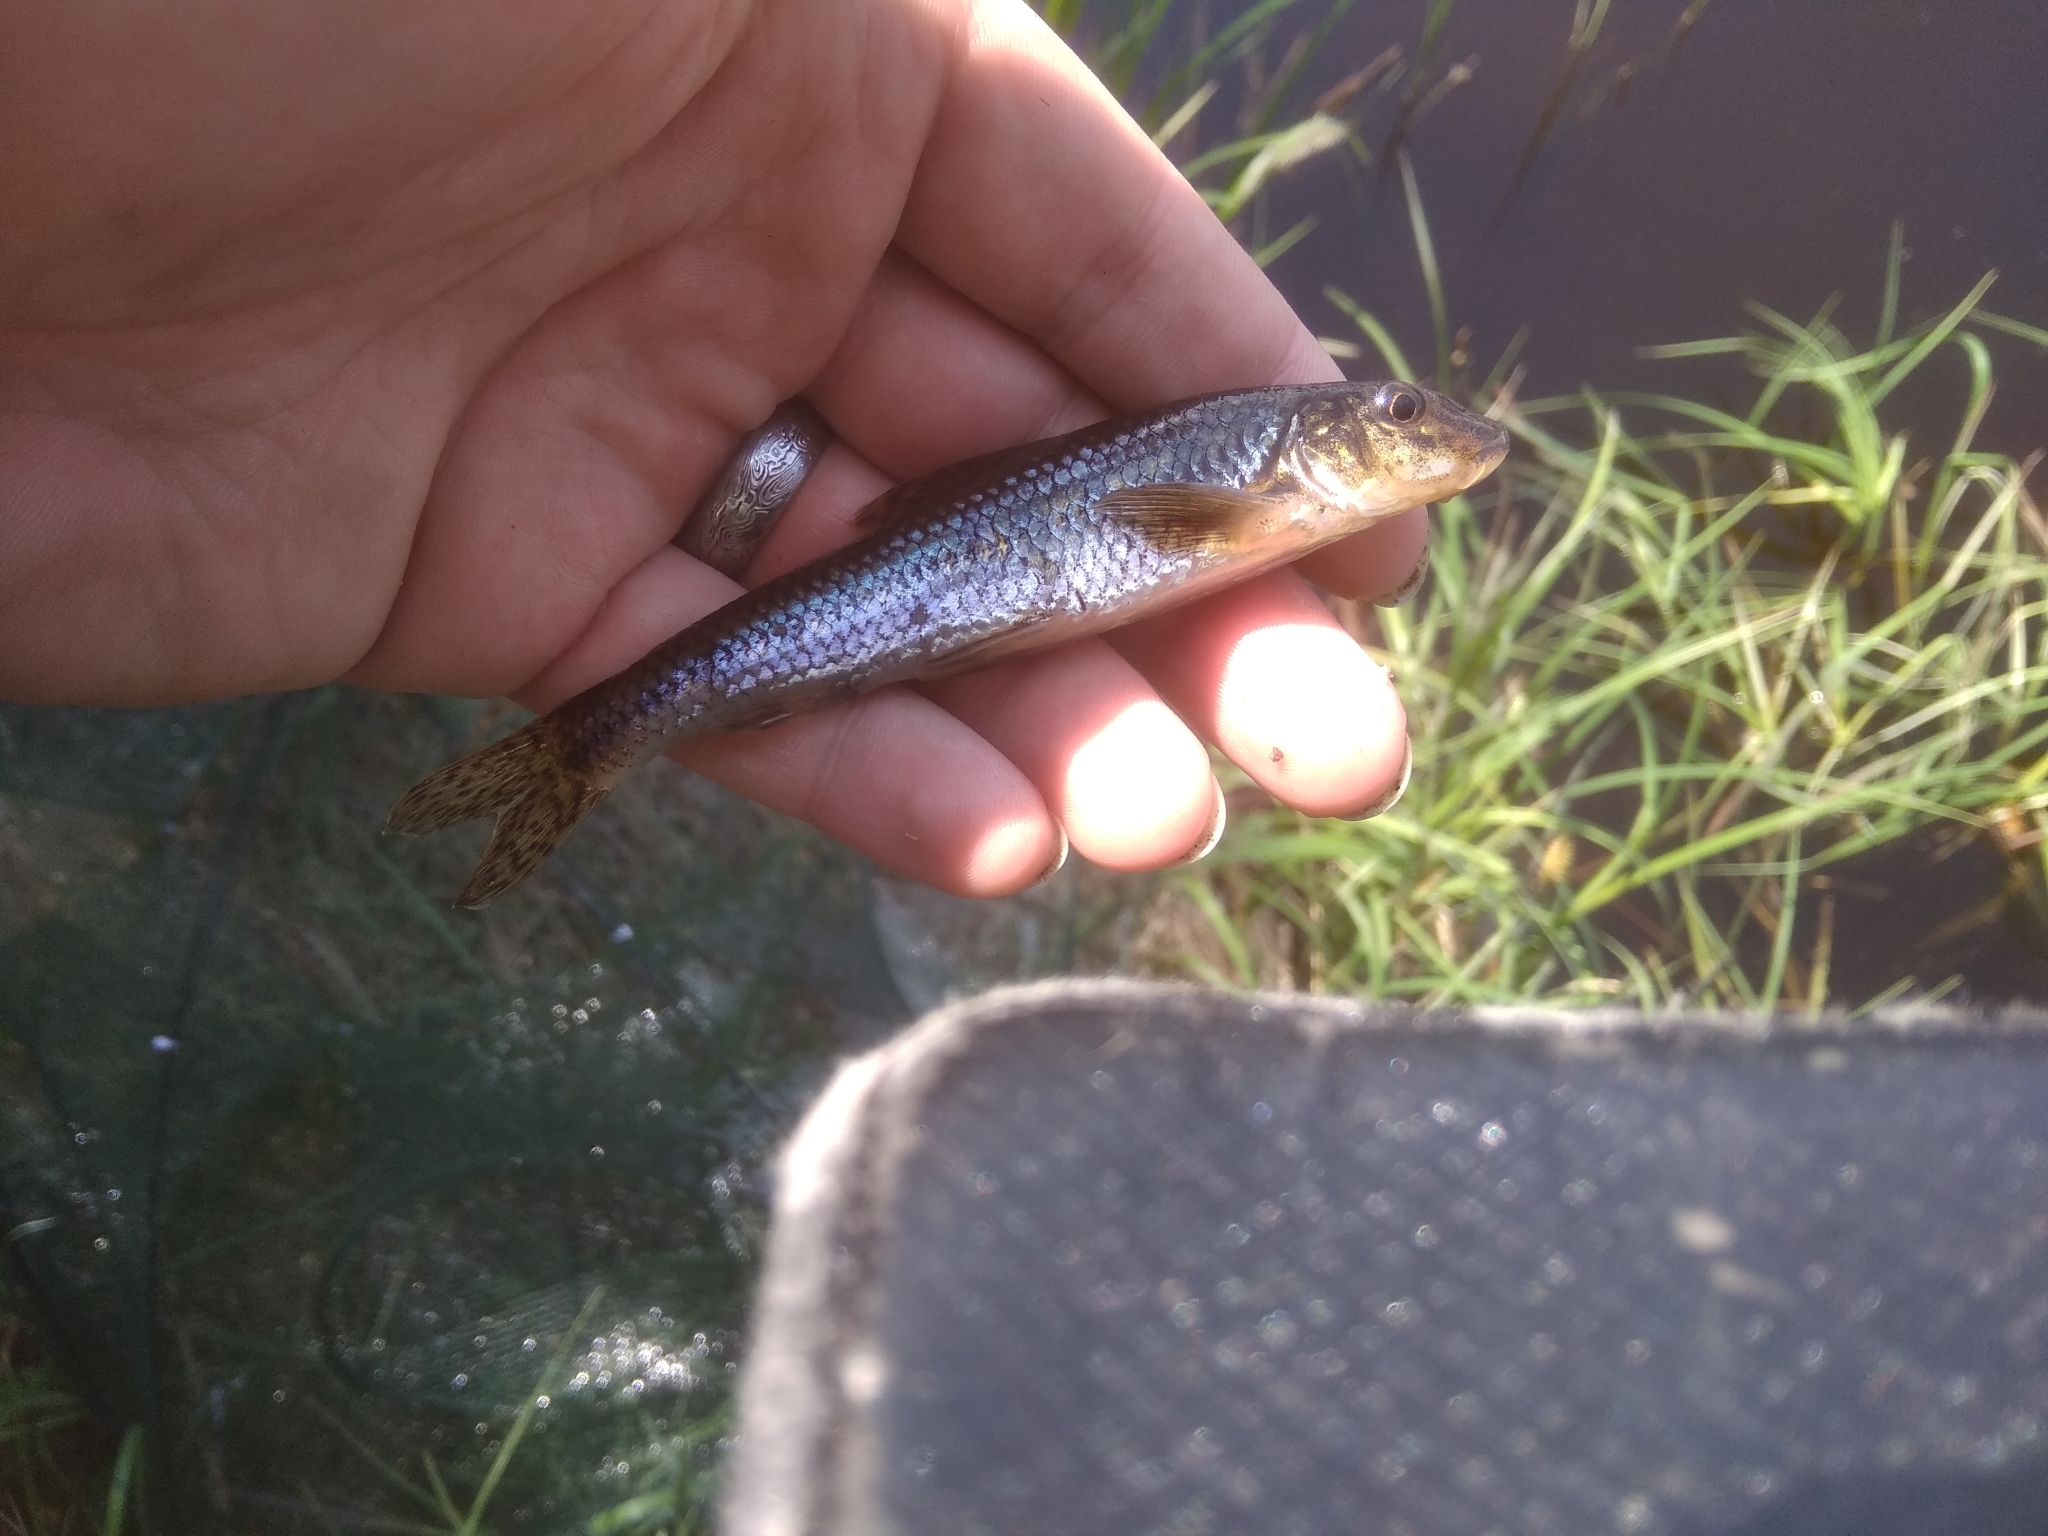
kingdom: Animalia
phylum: Chordata
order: Cypriniformes
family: Cyprinidae
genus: Gobio
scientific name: Gobio gobio
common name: Gudgeon
